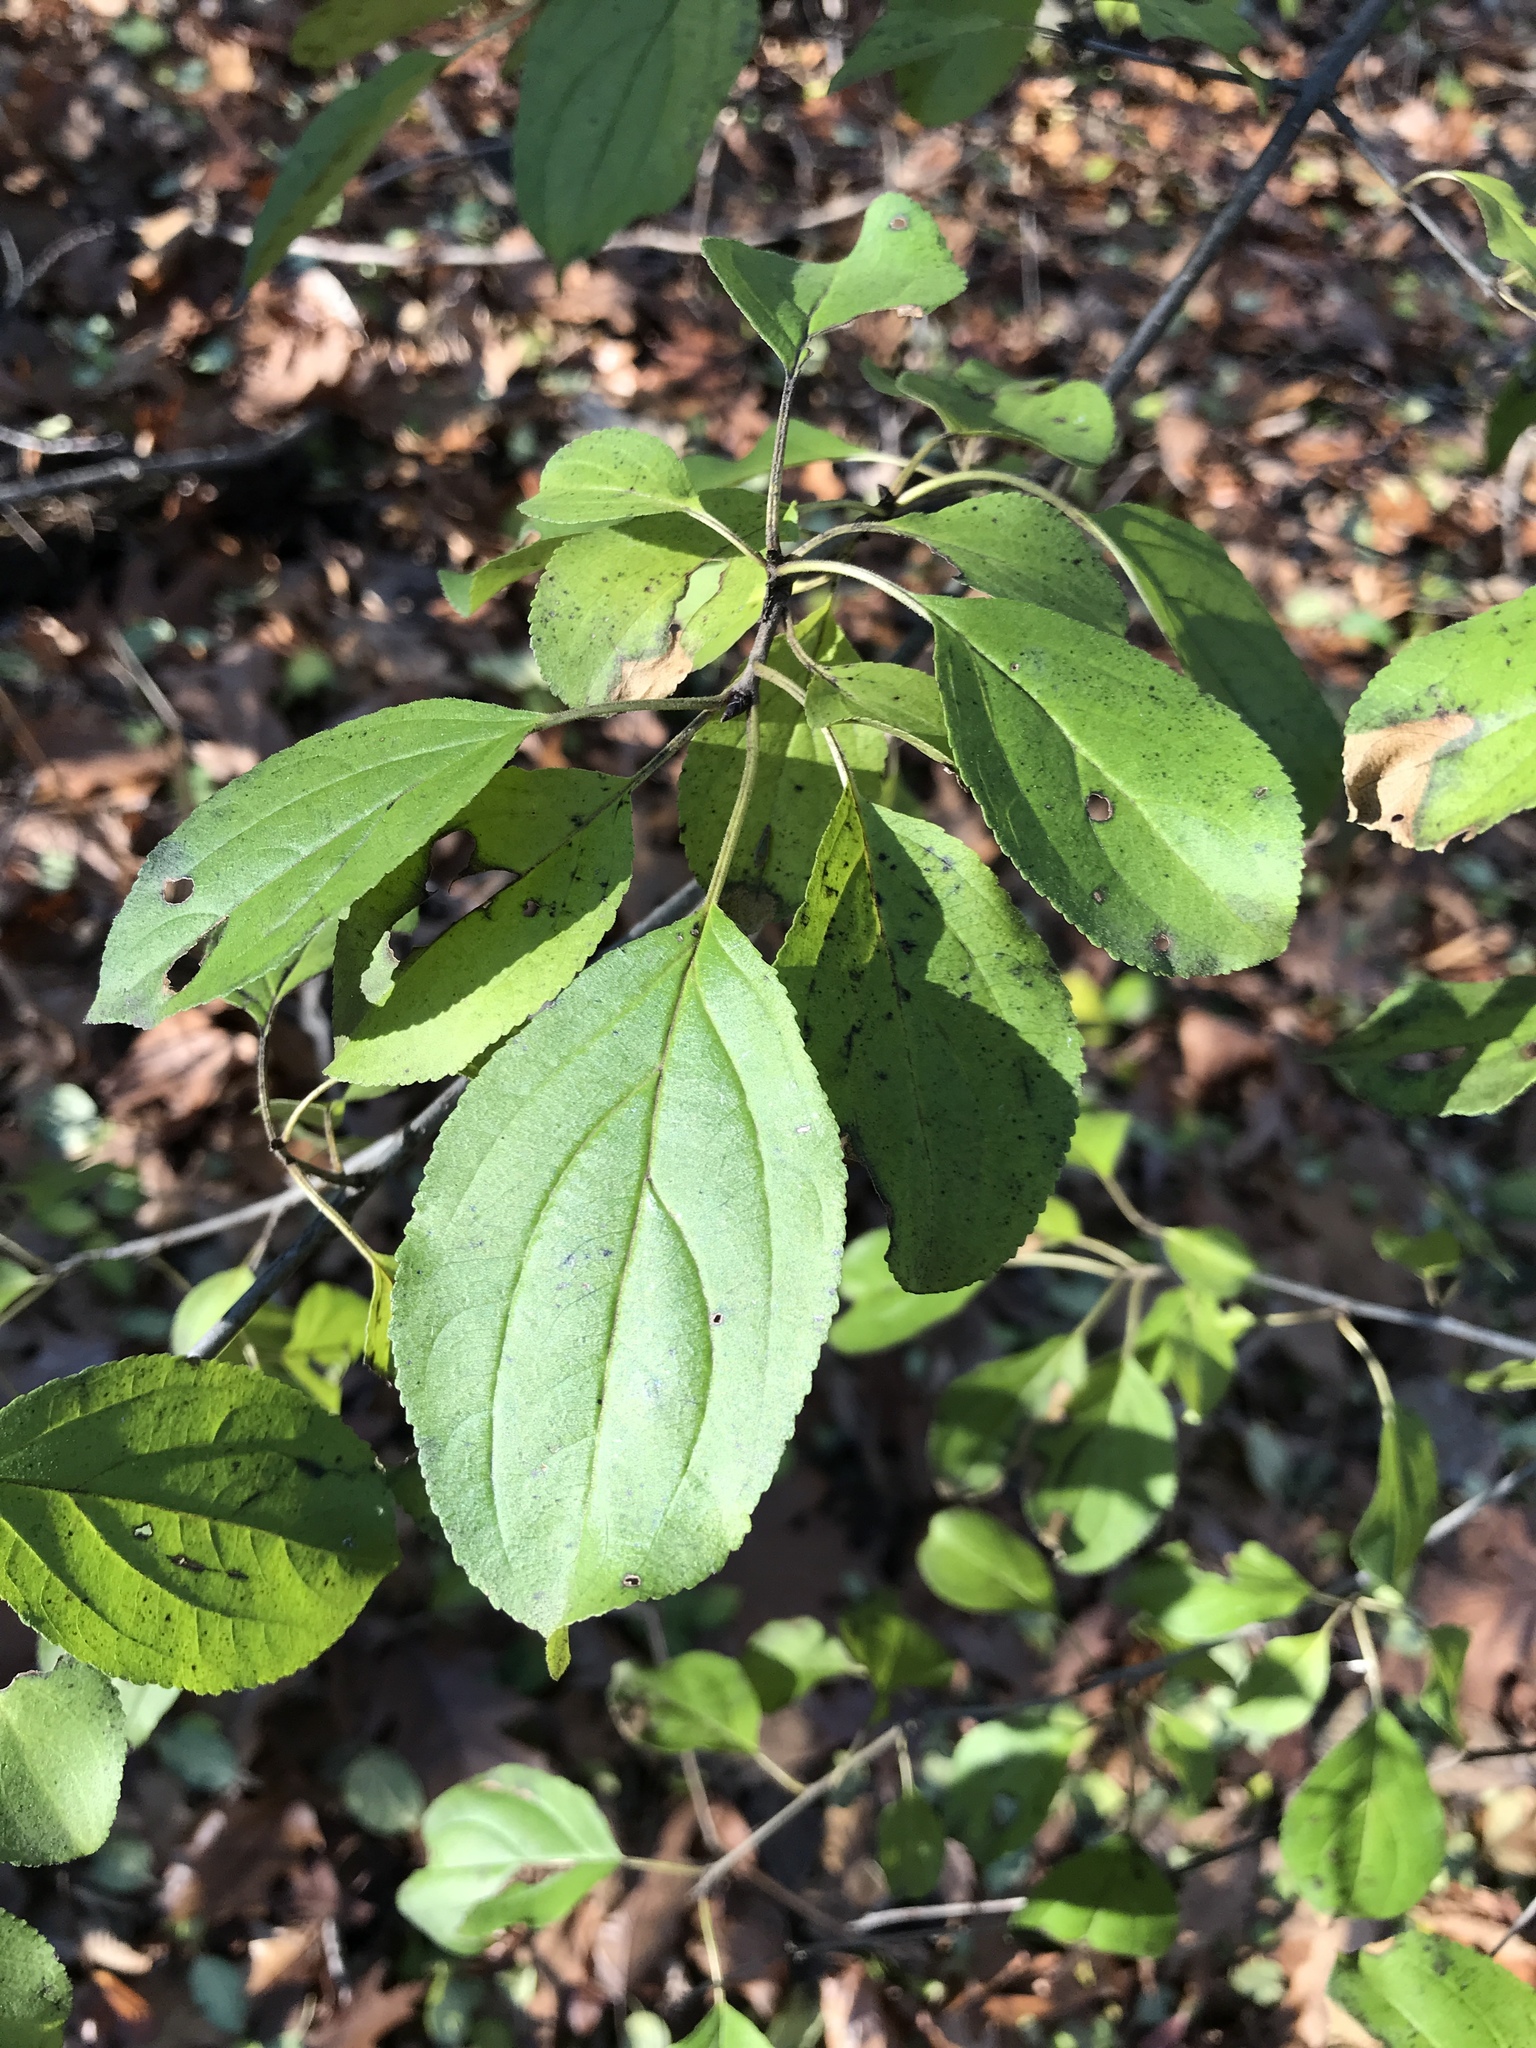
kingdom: Plantae
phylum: Tracheophyta
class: Magnoliopsida
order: Rosales
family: Rhamnaceae
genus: Rhamnus
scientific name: Rhamnus cathartica
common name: Common buckthorn
